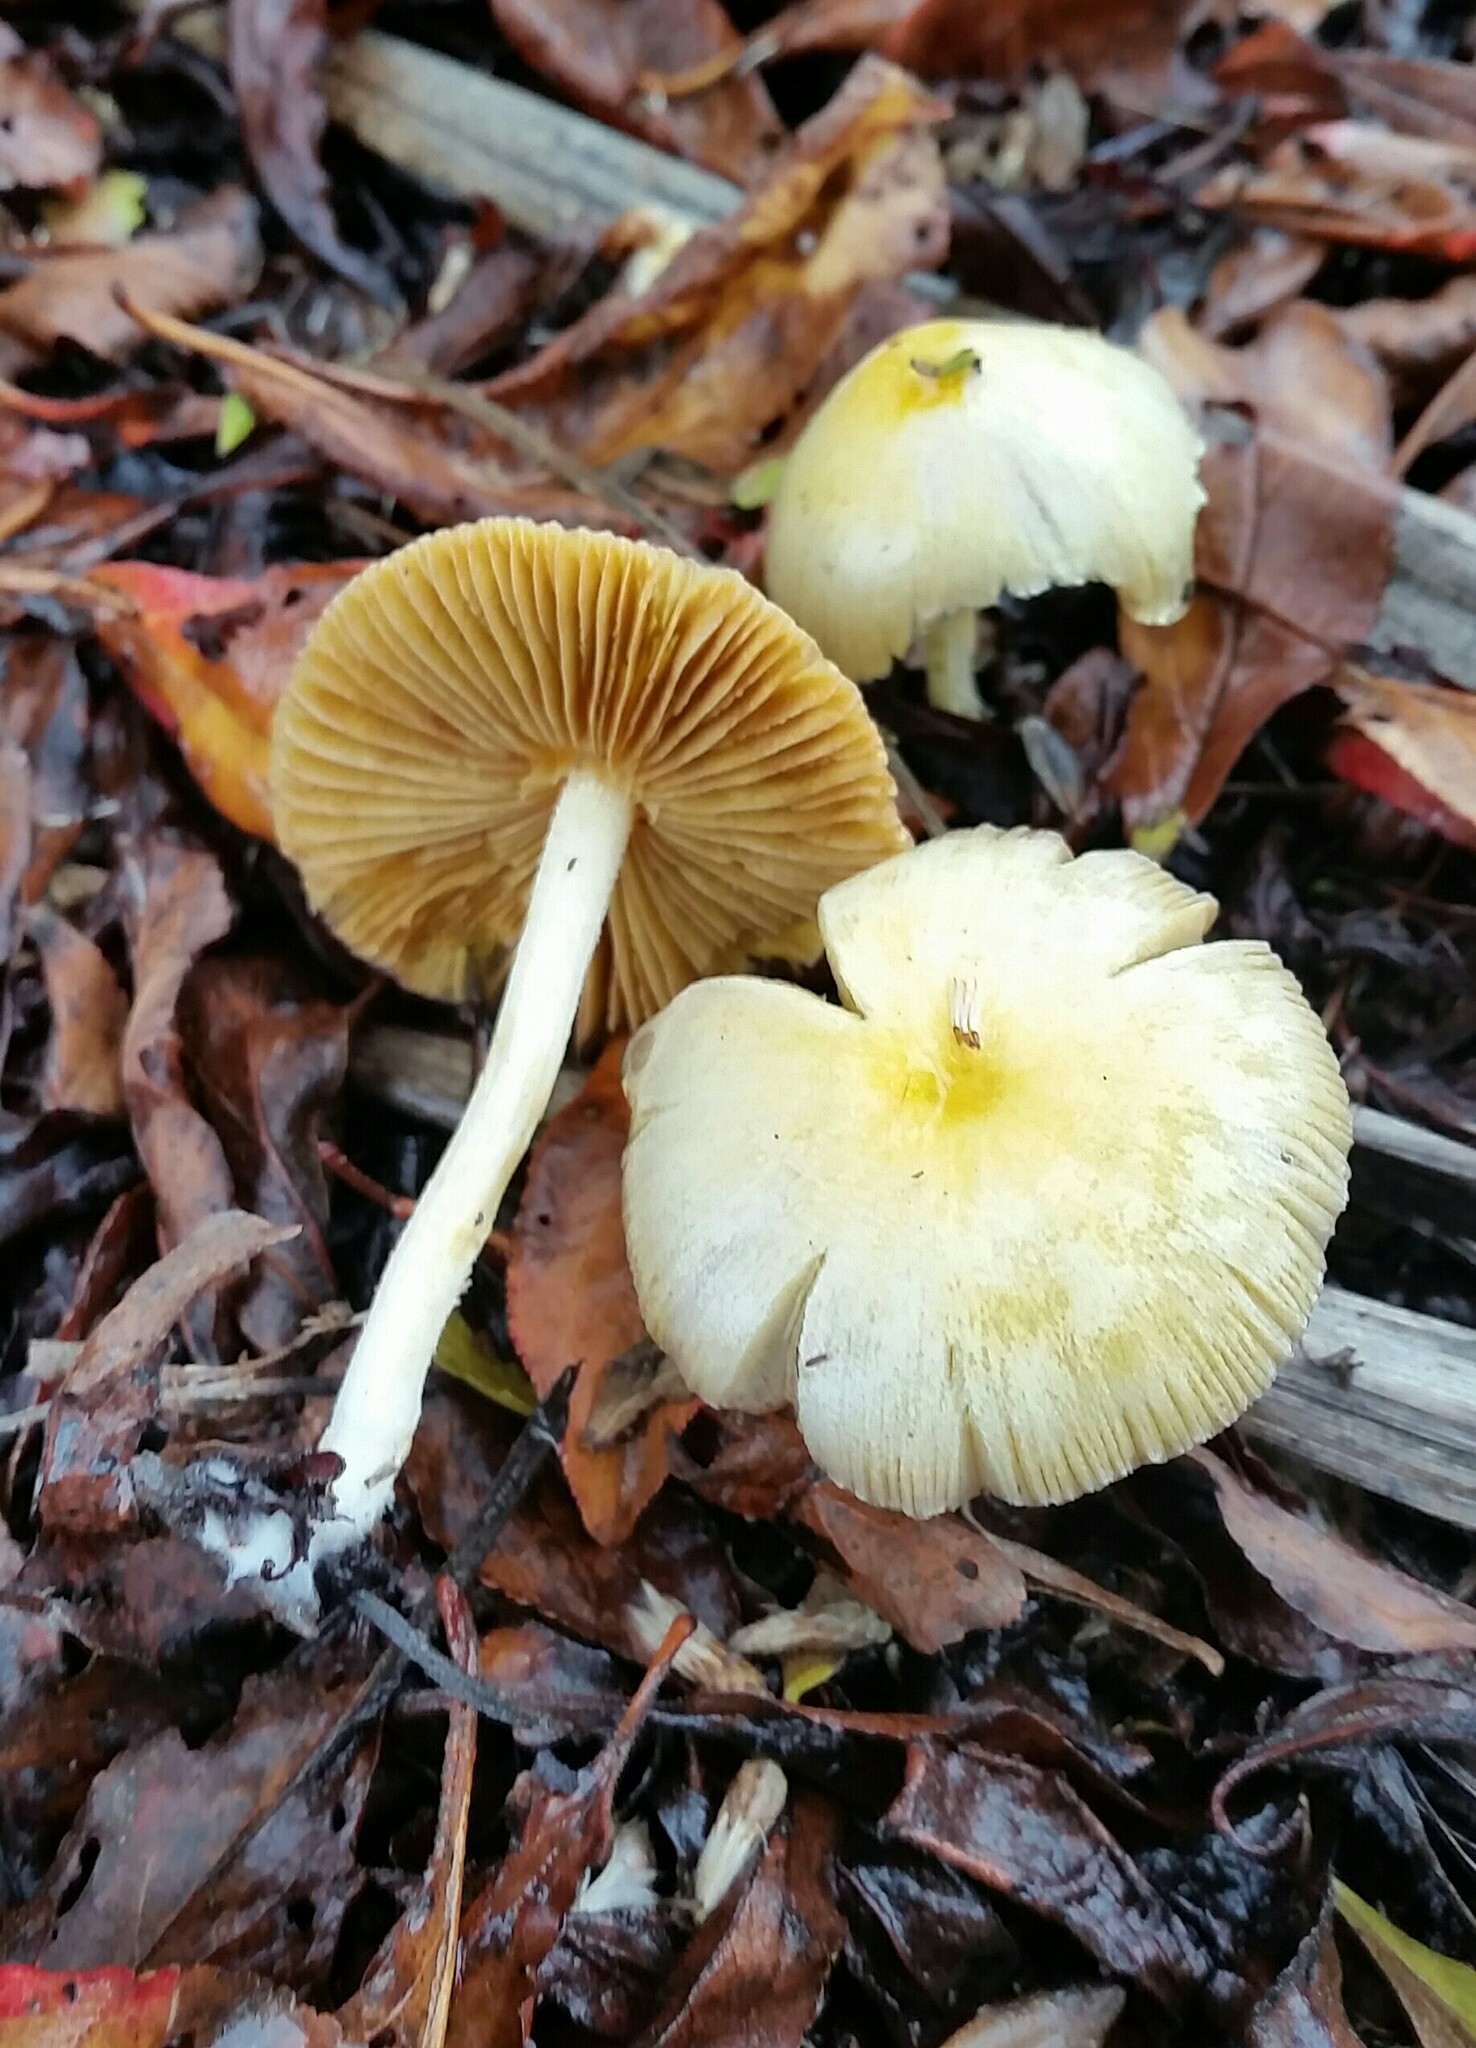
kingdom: Fungi
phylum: Basidiomycota
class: Agaricomycetes
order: Agaricales
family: Bolbitiaceae
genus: Bolbitius
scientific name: Bolbitius titubans
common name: Yellow fieldcap
